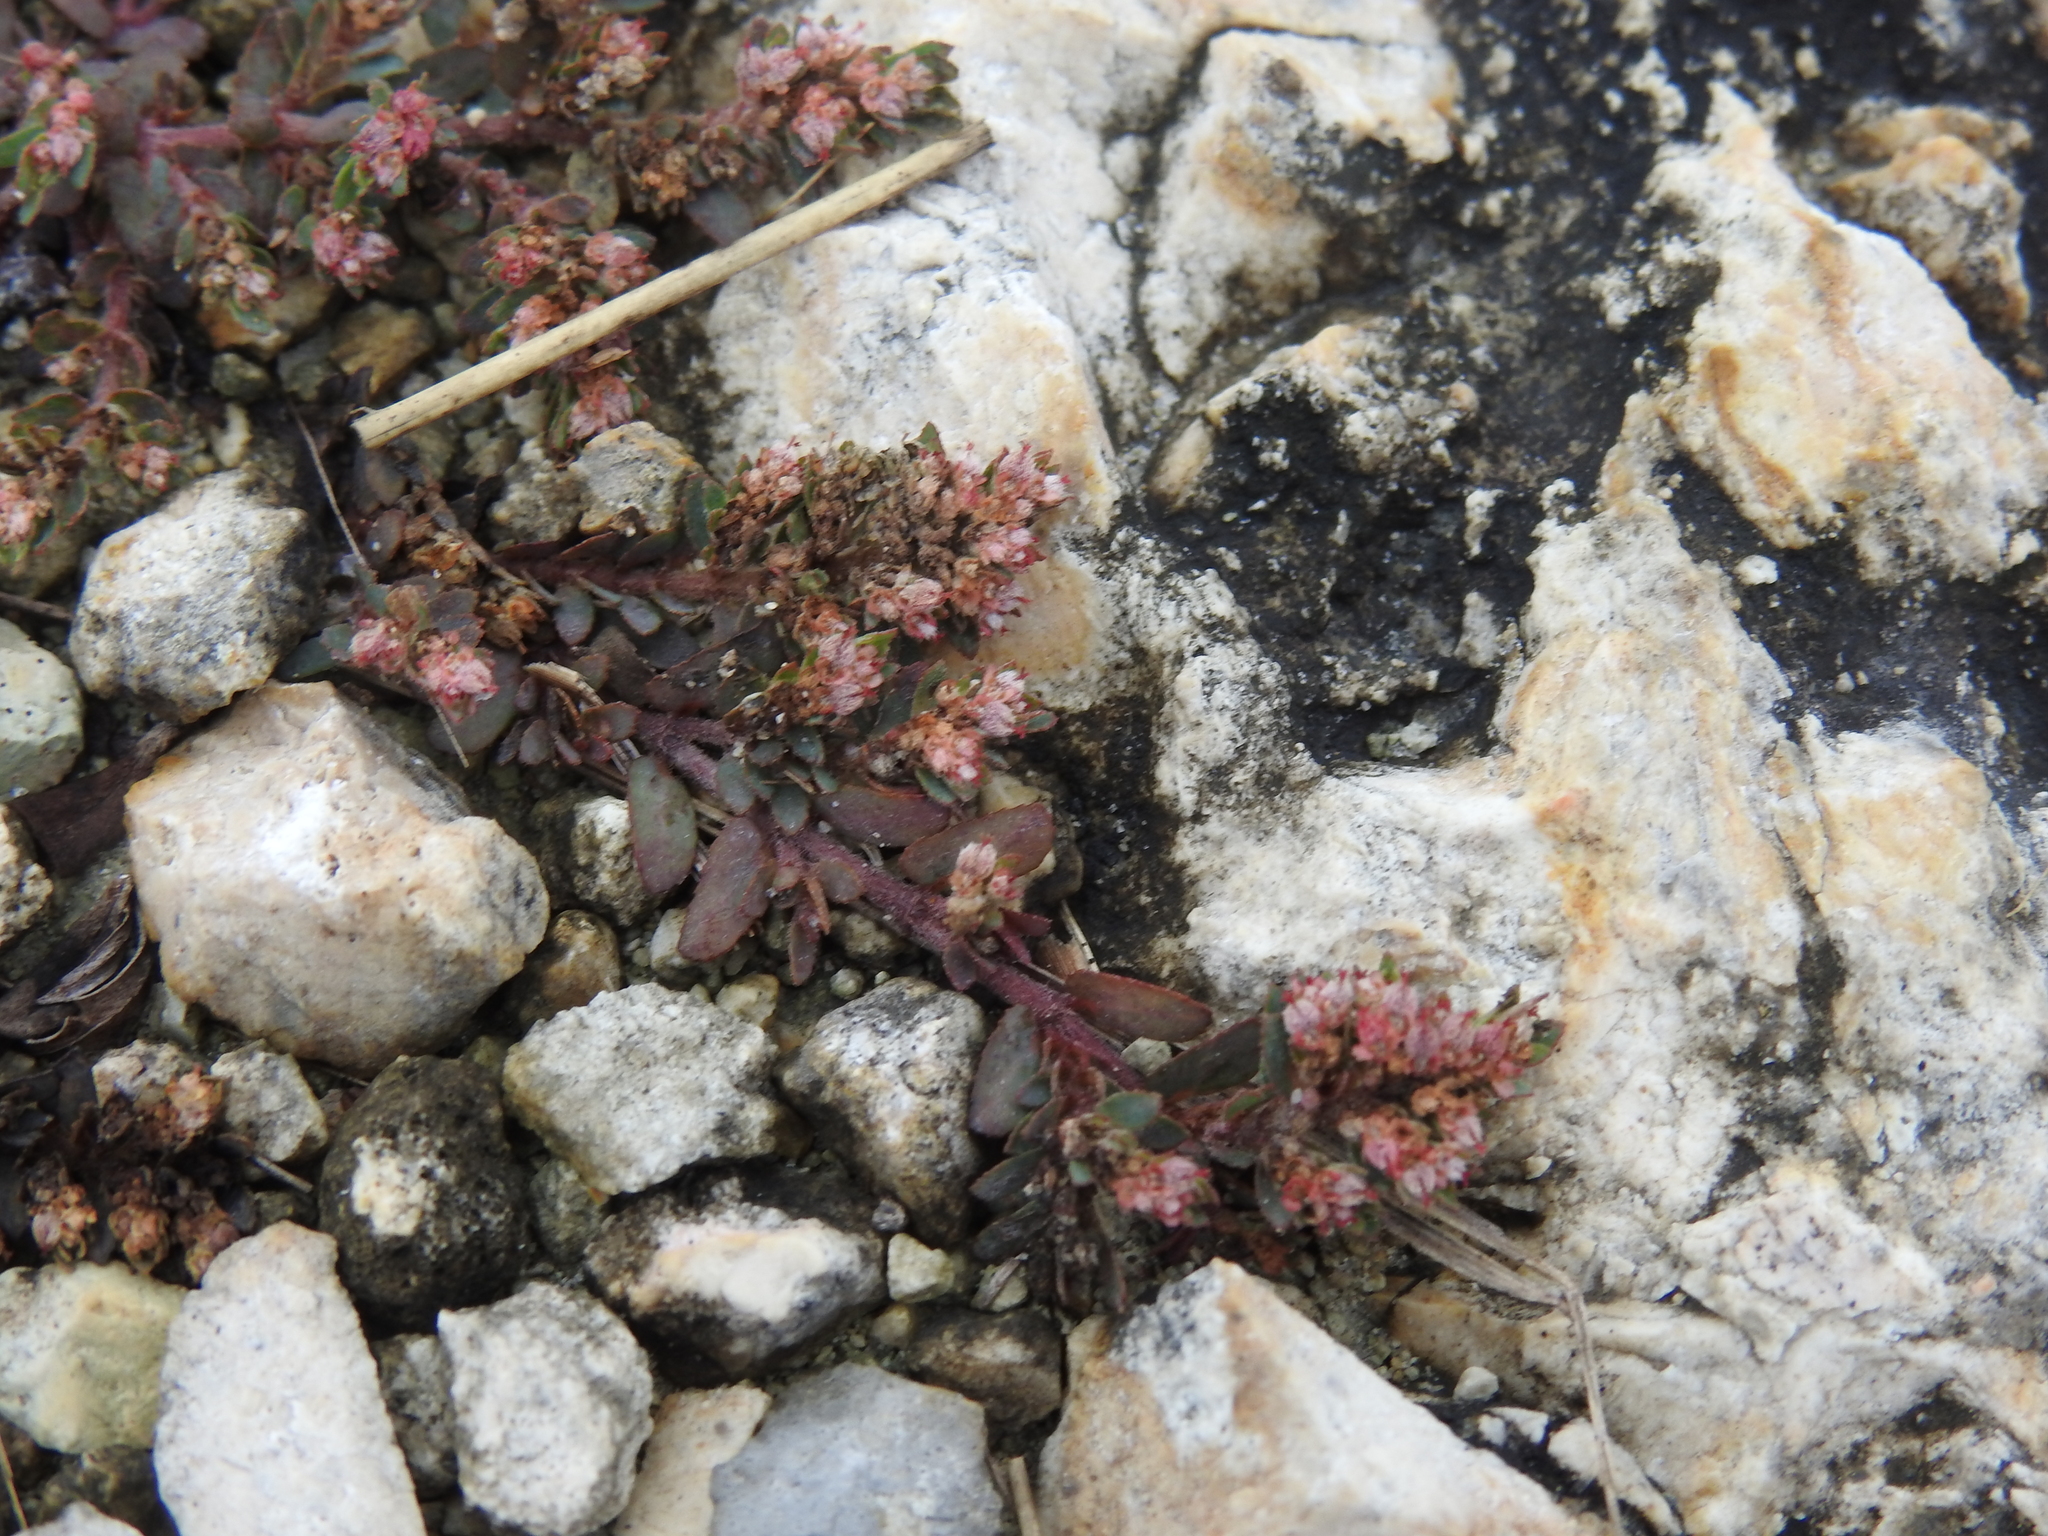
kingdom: Plantae
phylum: Tracheophyta
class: Magnoliopsida
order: Malpighiales
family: Euphorbiaceae
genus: Euphorbia
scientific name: Euphorbia conferta
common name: Everglade key sandmat
